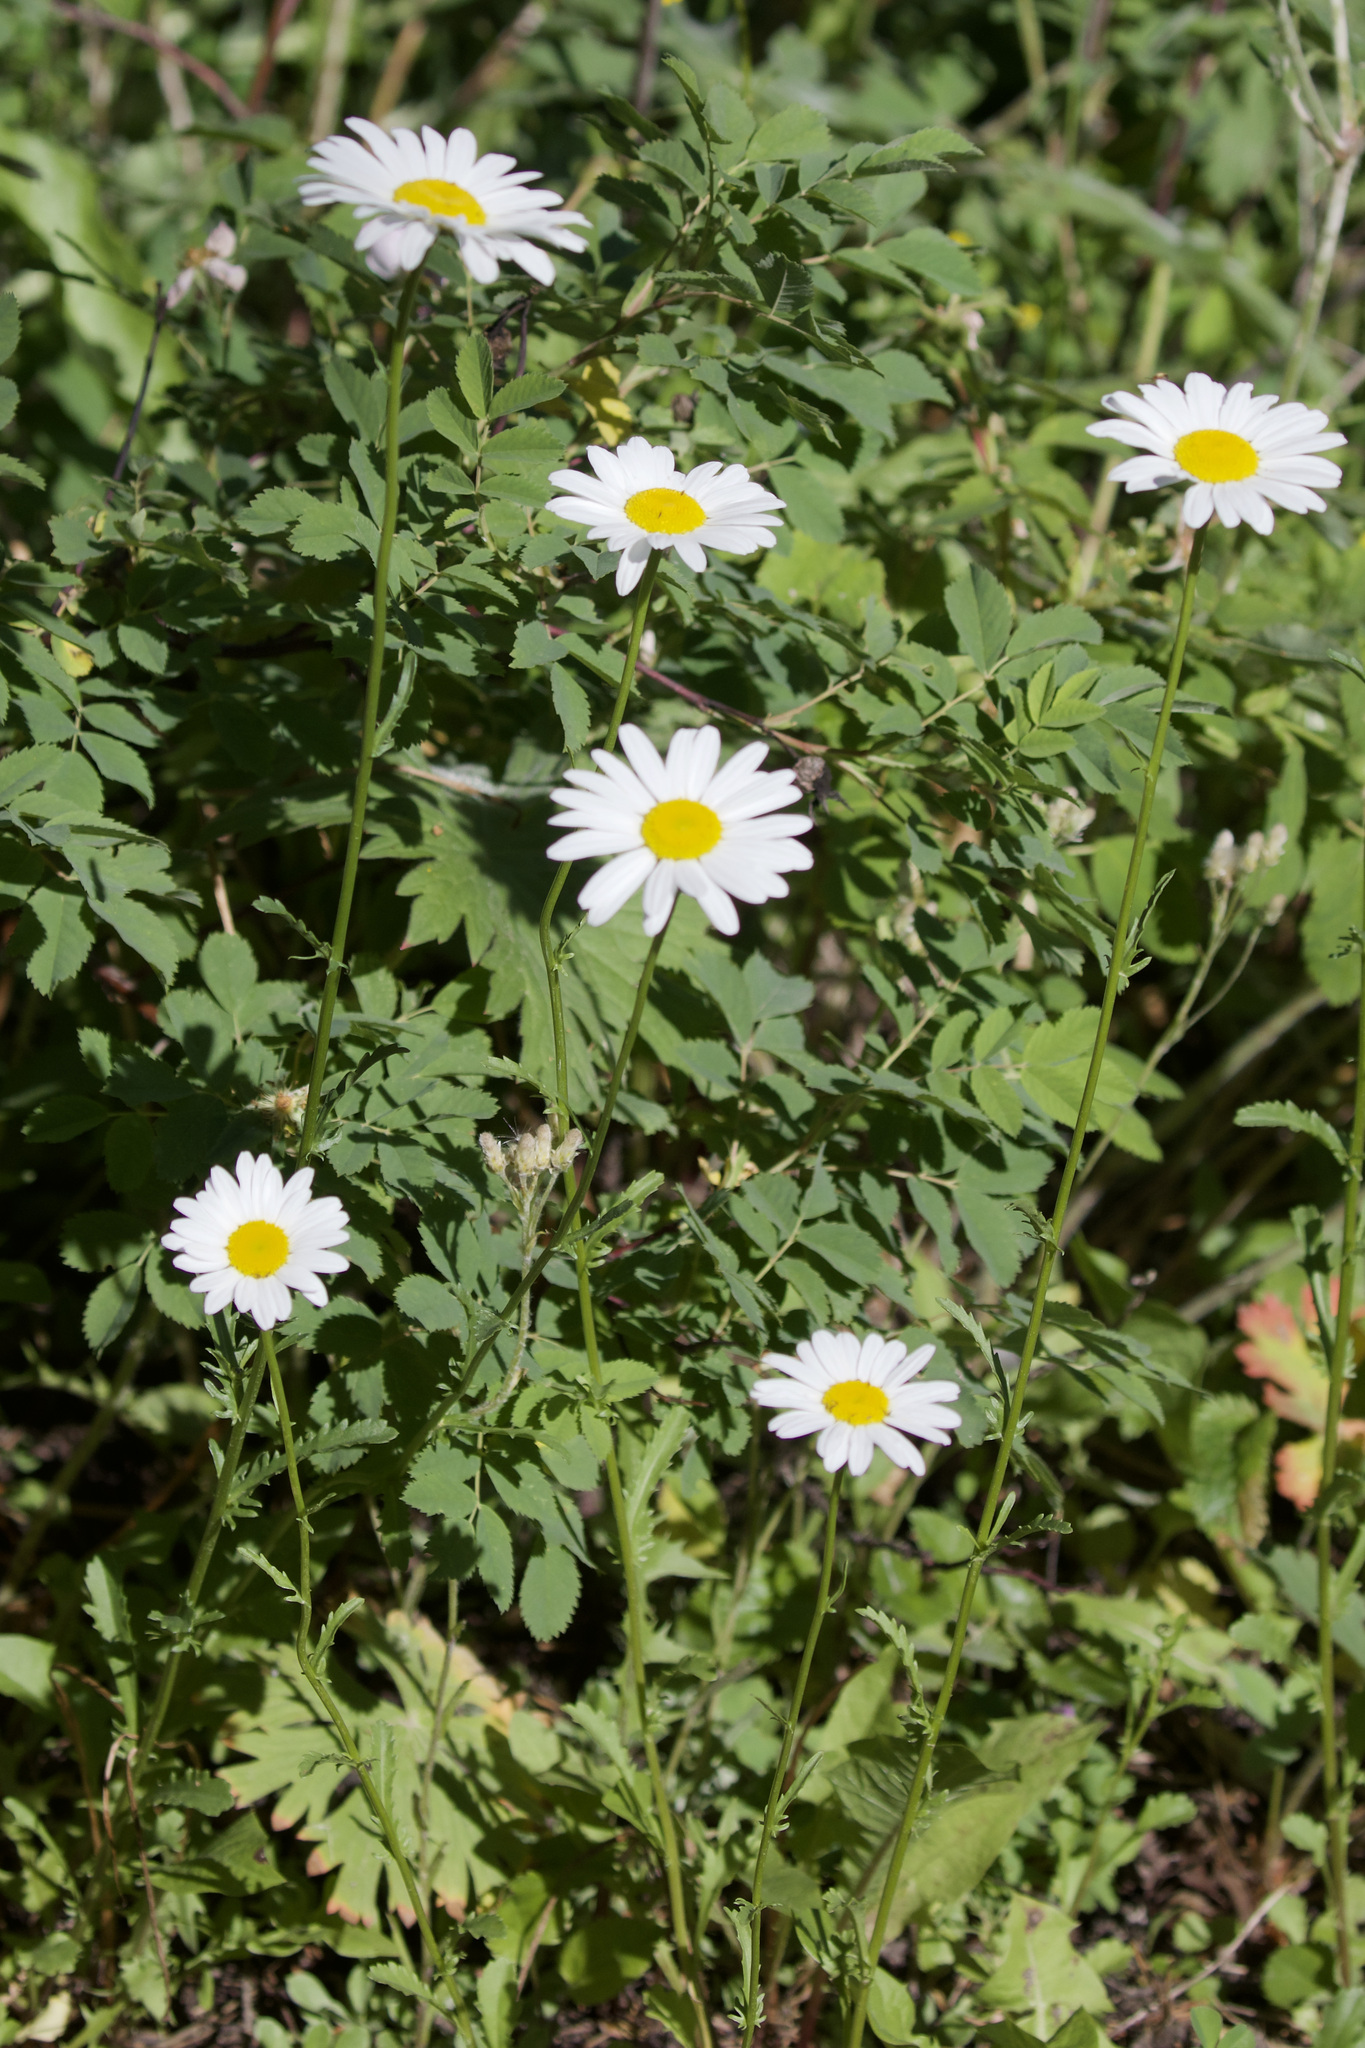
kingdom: Plantae
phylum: Tracheophyta
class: Magnoliopsida
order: Asterales
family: Asteraceae
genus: Leucanthemum
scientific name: Leucanthemum vulgare
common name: Oxeye daisy
